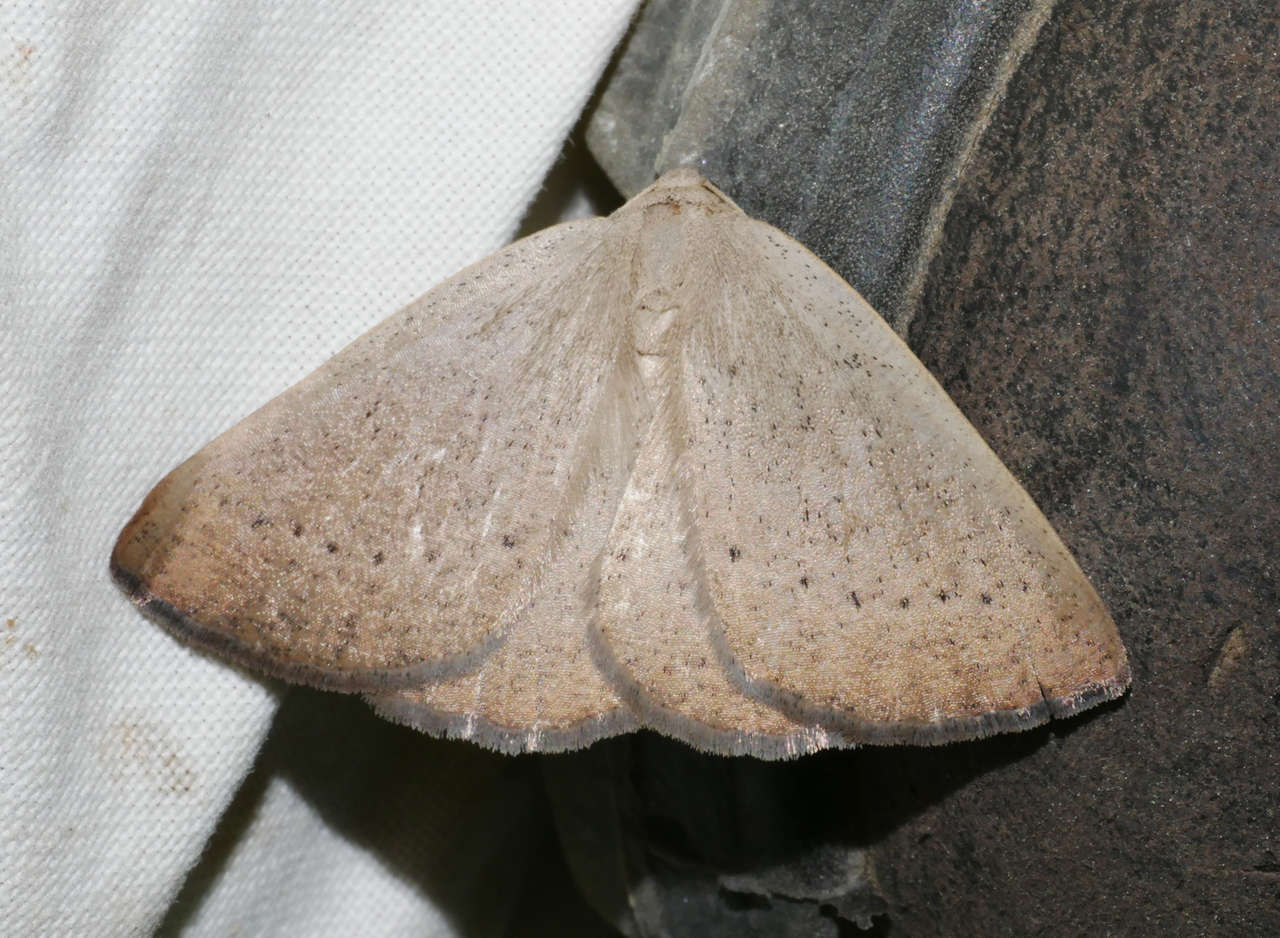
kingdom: Animalia
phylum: Arthropoda
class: Insecta
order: Lepidoptera
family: Geometridae
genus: Amelora
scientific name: Amelora oncerodes
